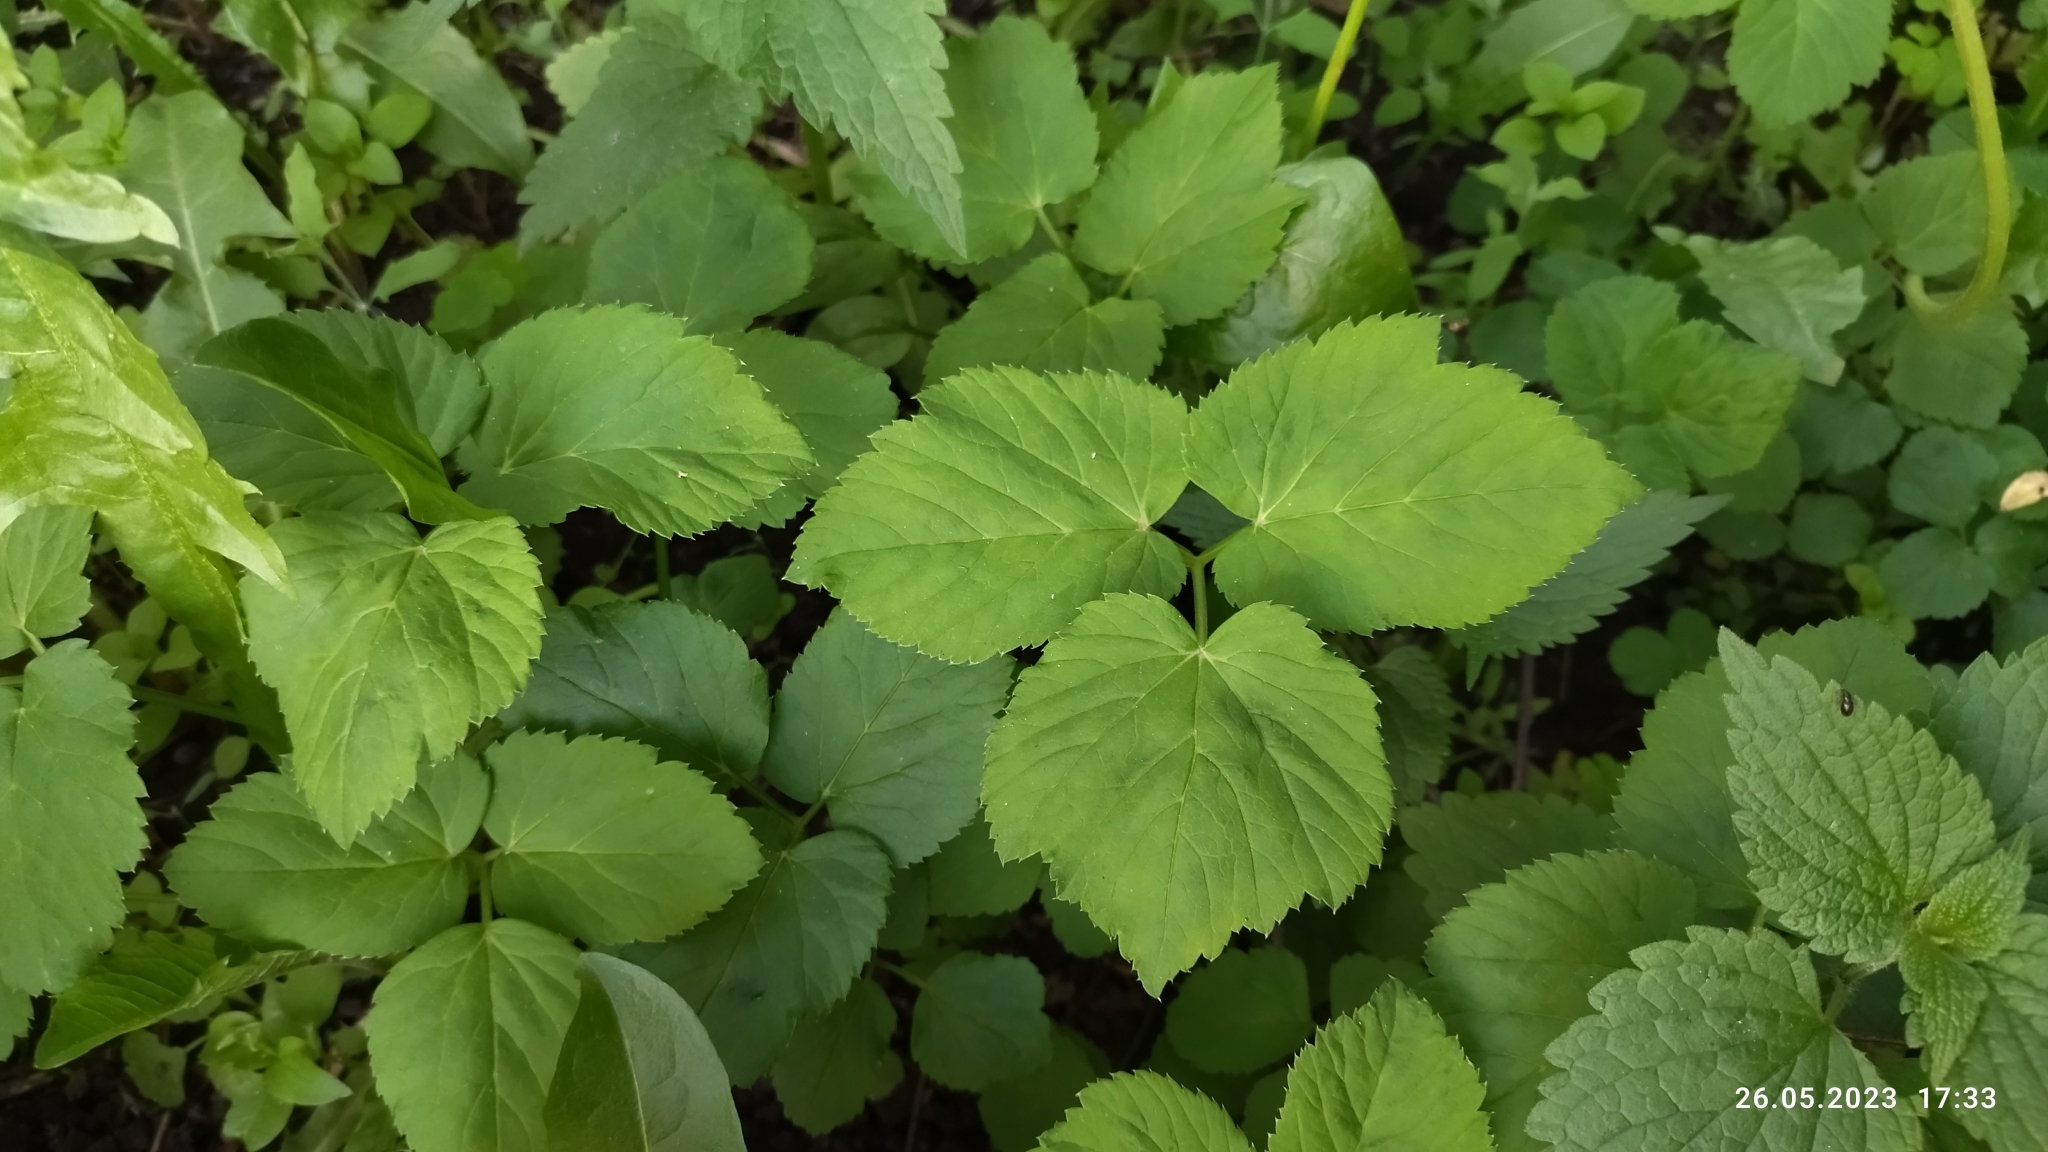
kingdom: Plantae
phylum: Tracheophyta
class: Magnoliopsida
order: Apiales
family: Apiaceae
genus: Aegopodium
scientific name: Aegopodium podagraria
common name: Ground-elder
